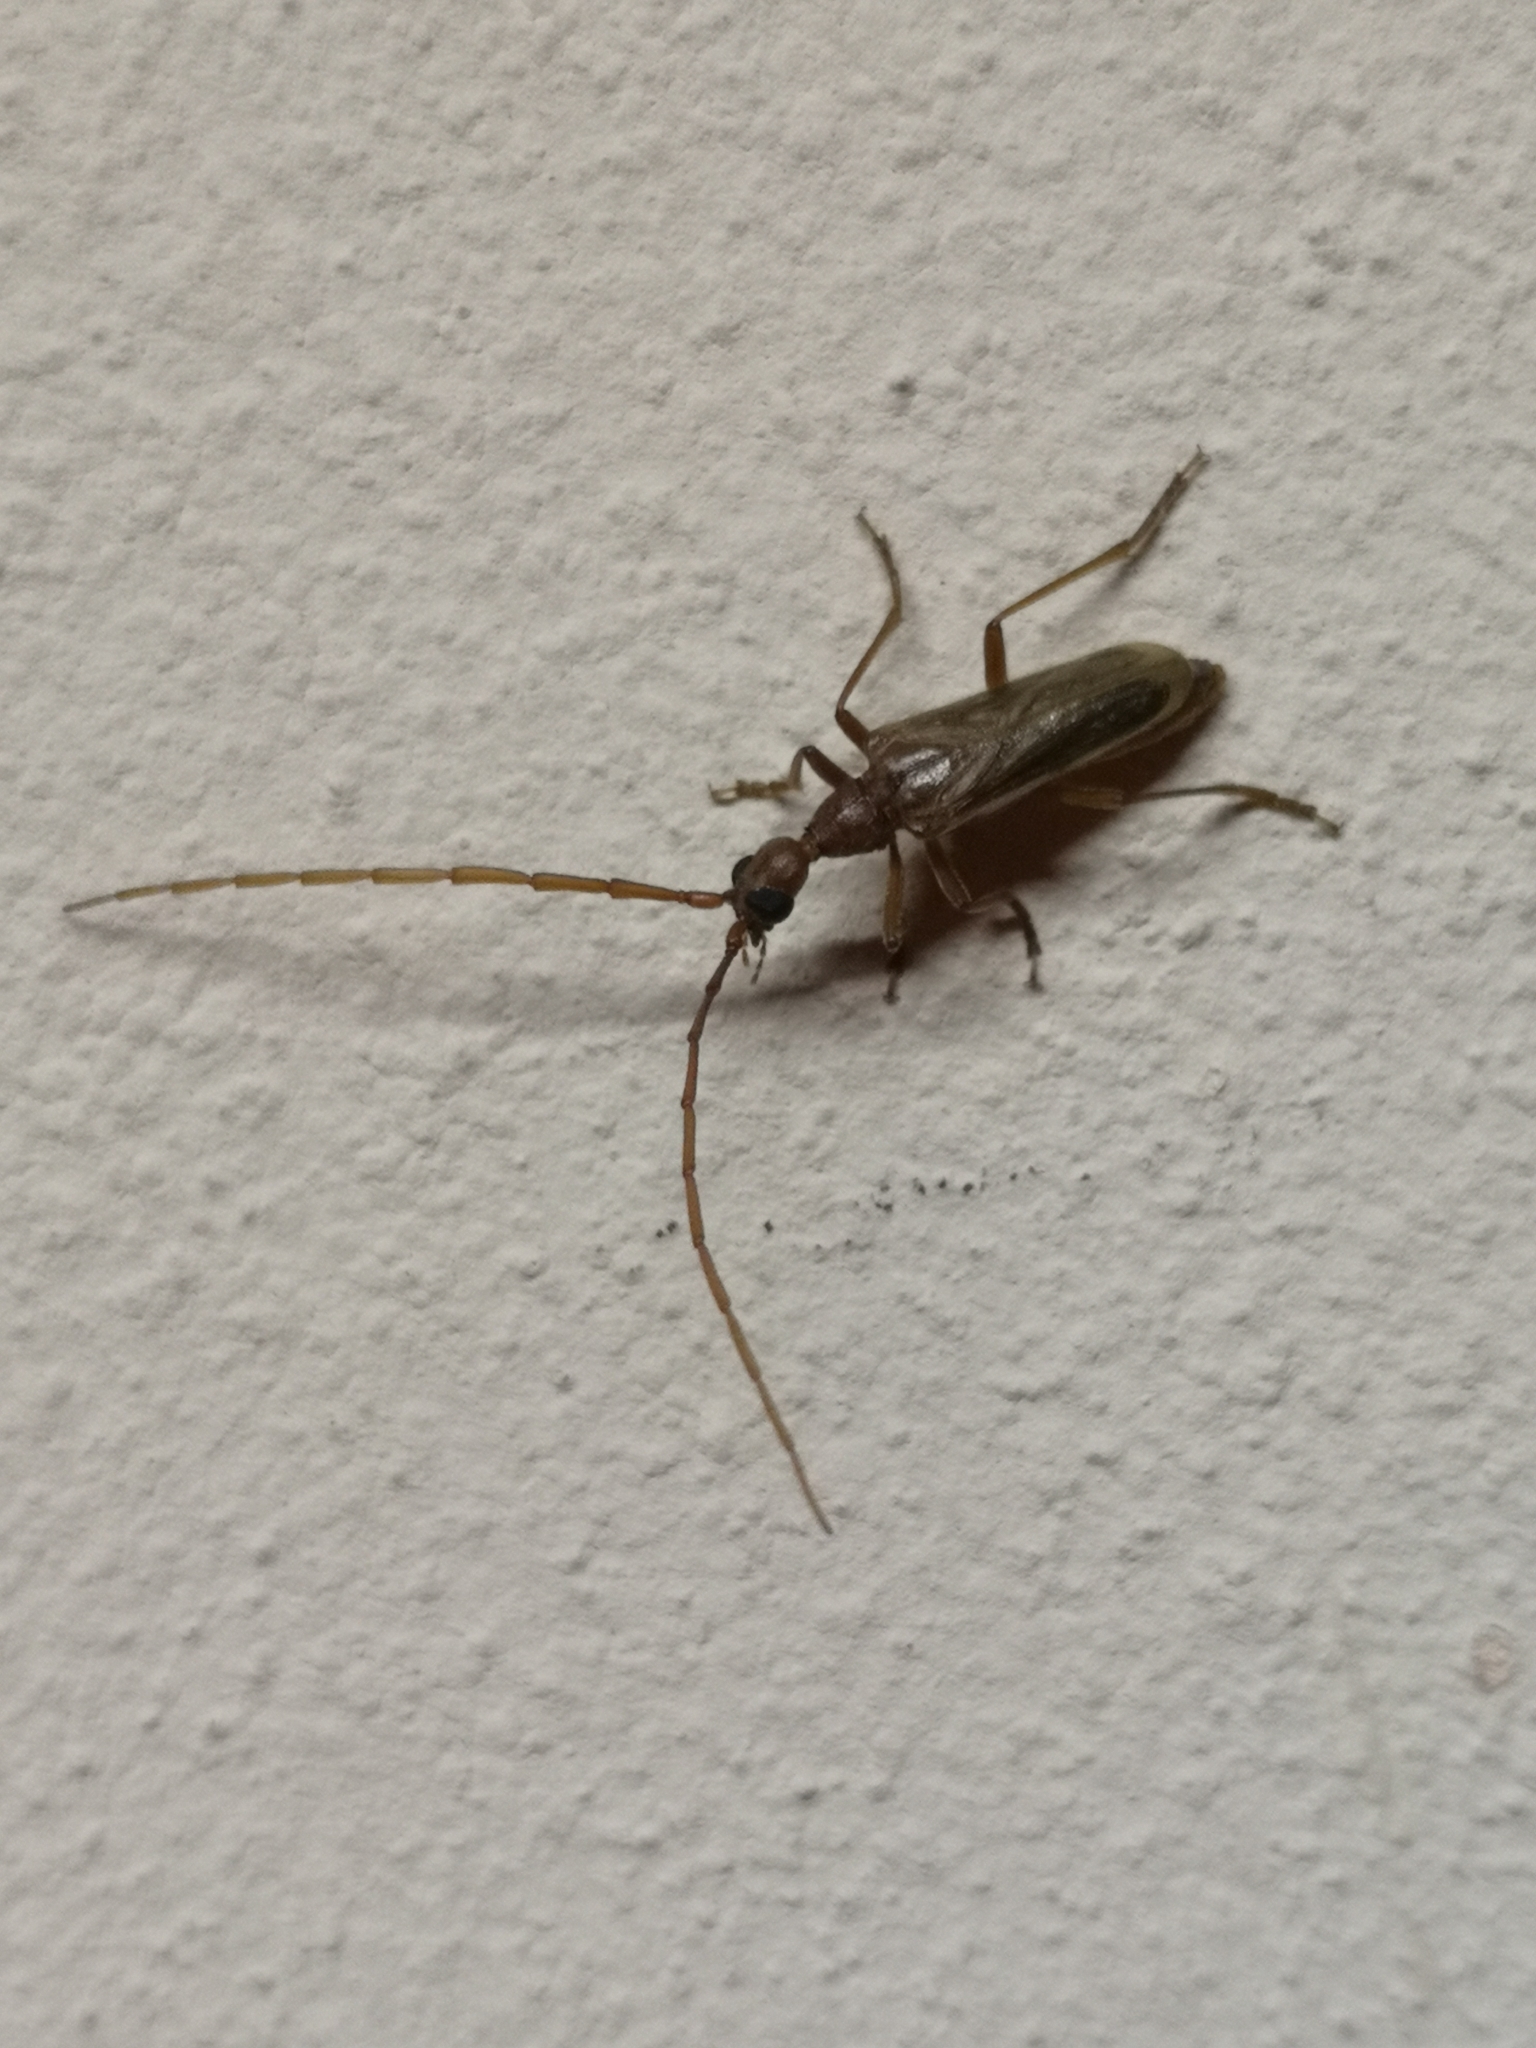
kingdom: Animalia
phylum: Arthropoda
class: Insecta
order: Coleoptera
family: Cerambycidae
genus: Vesperus
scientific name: Vesperus luridus
